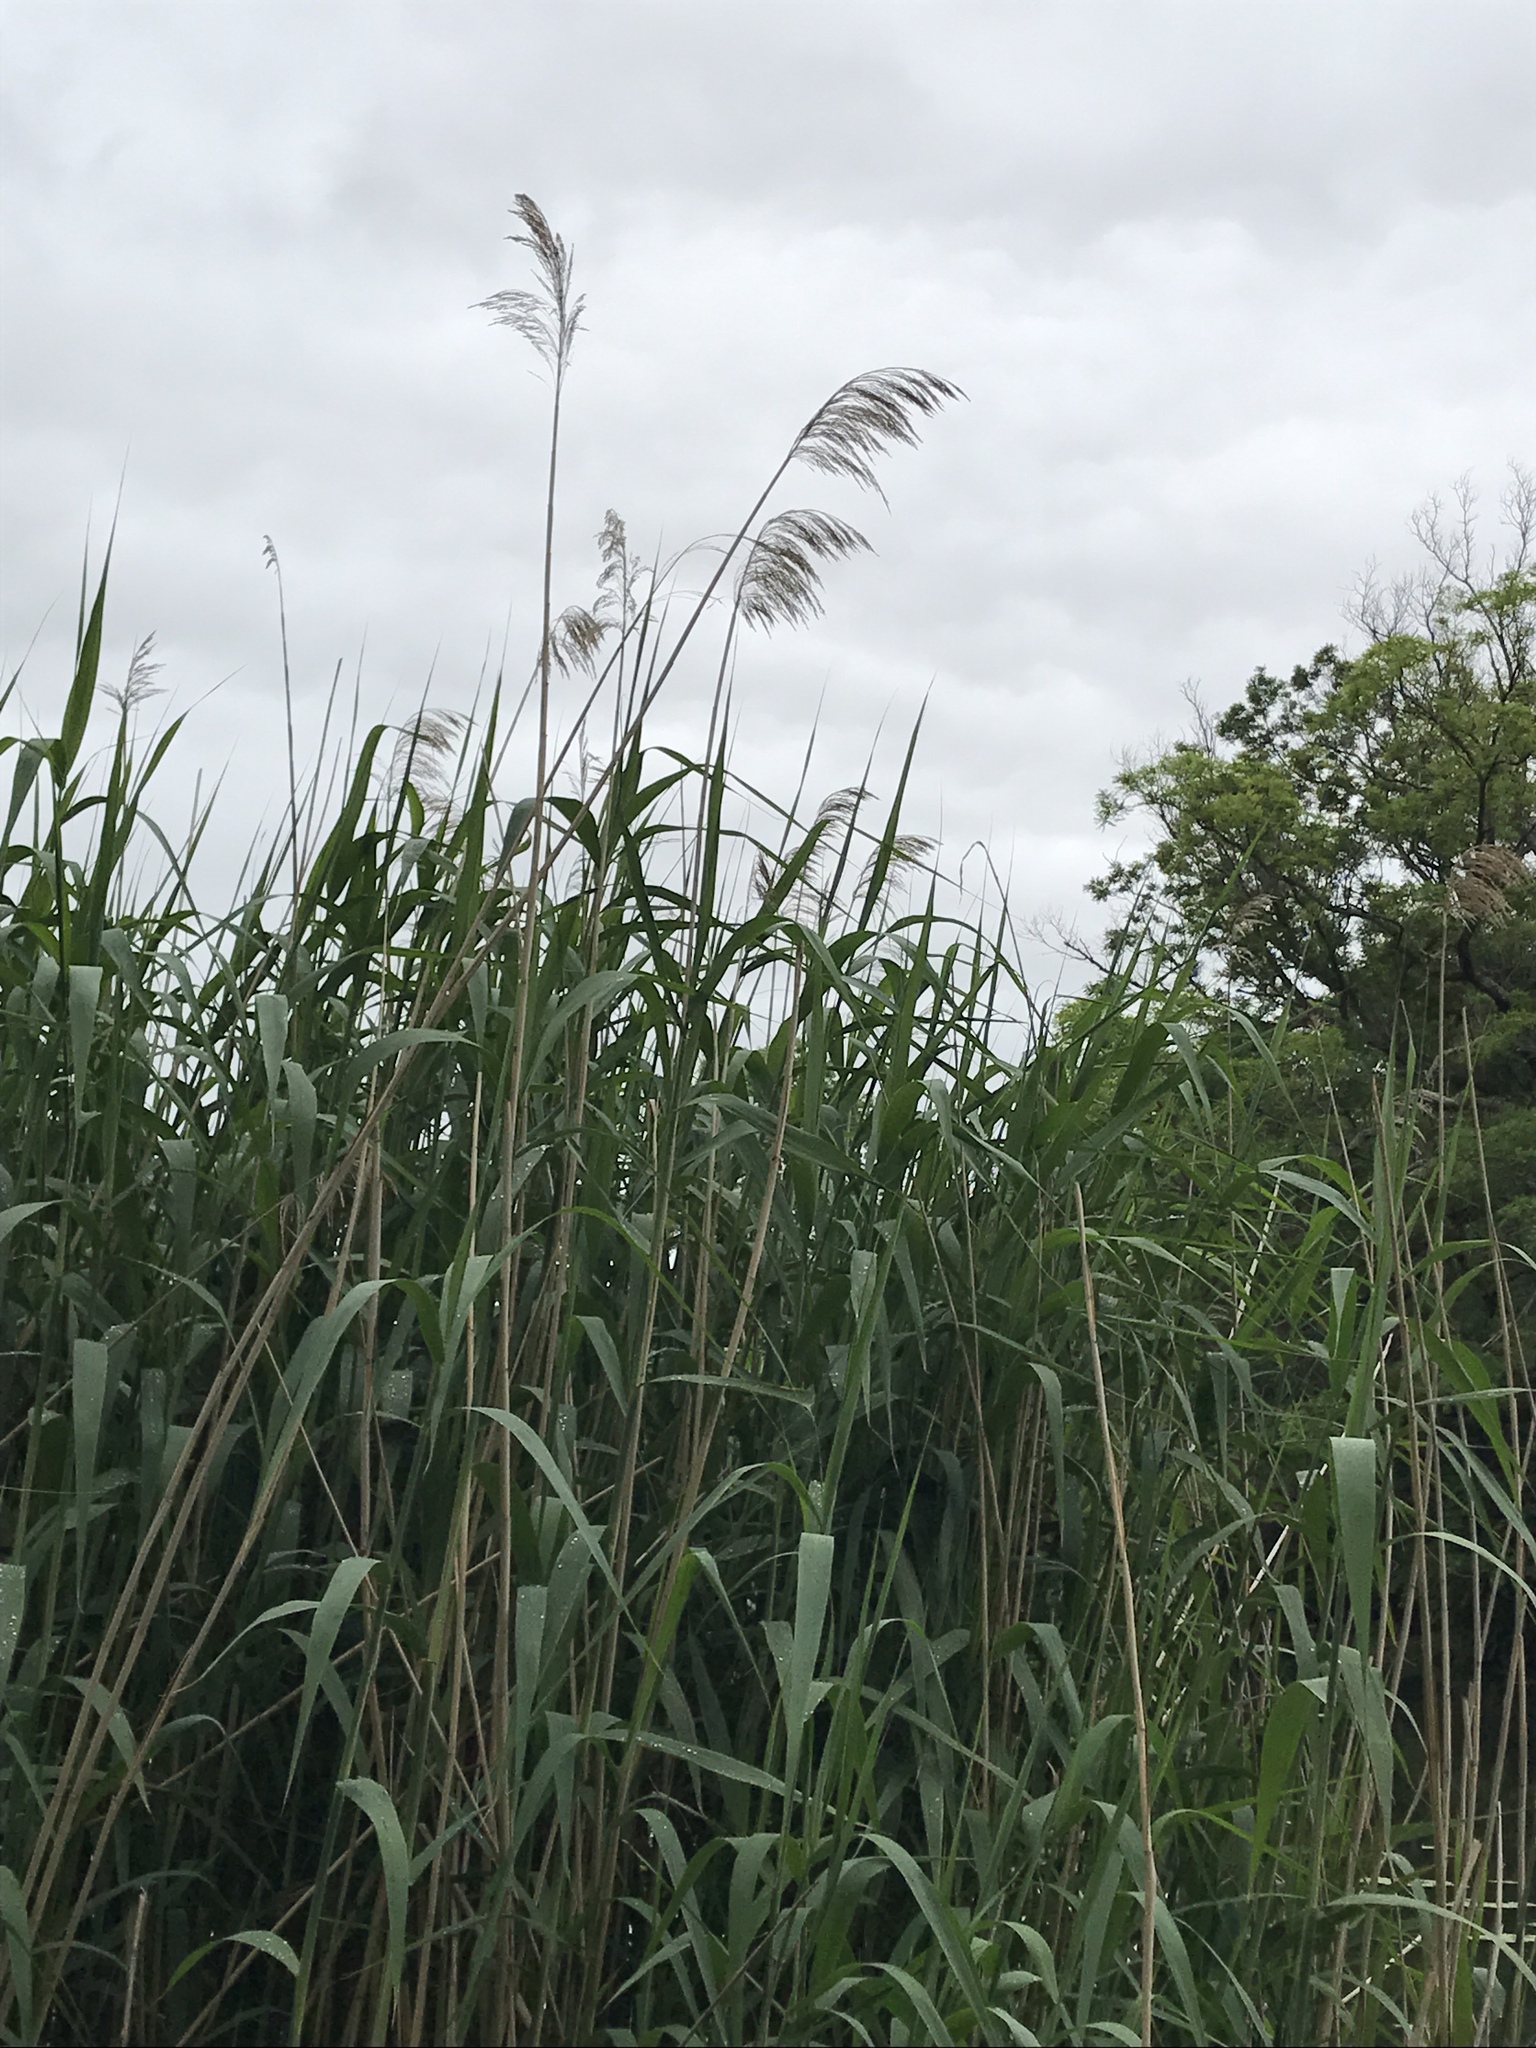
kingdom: Plantae
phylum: Tracheophyta
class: Liliopsida
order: Poales
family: Poaceae
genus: Phragmites
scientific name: Phragmites australis
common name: Common reed
